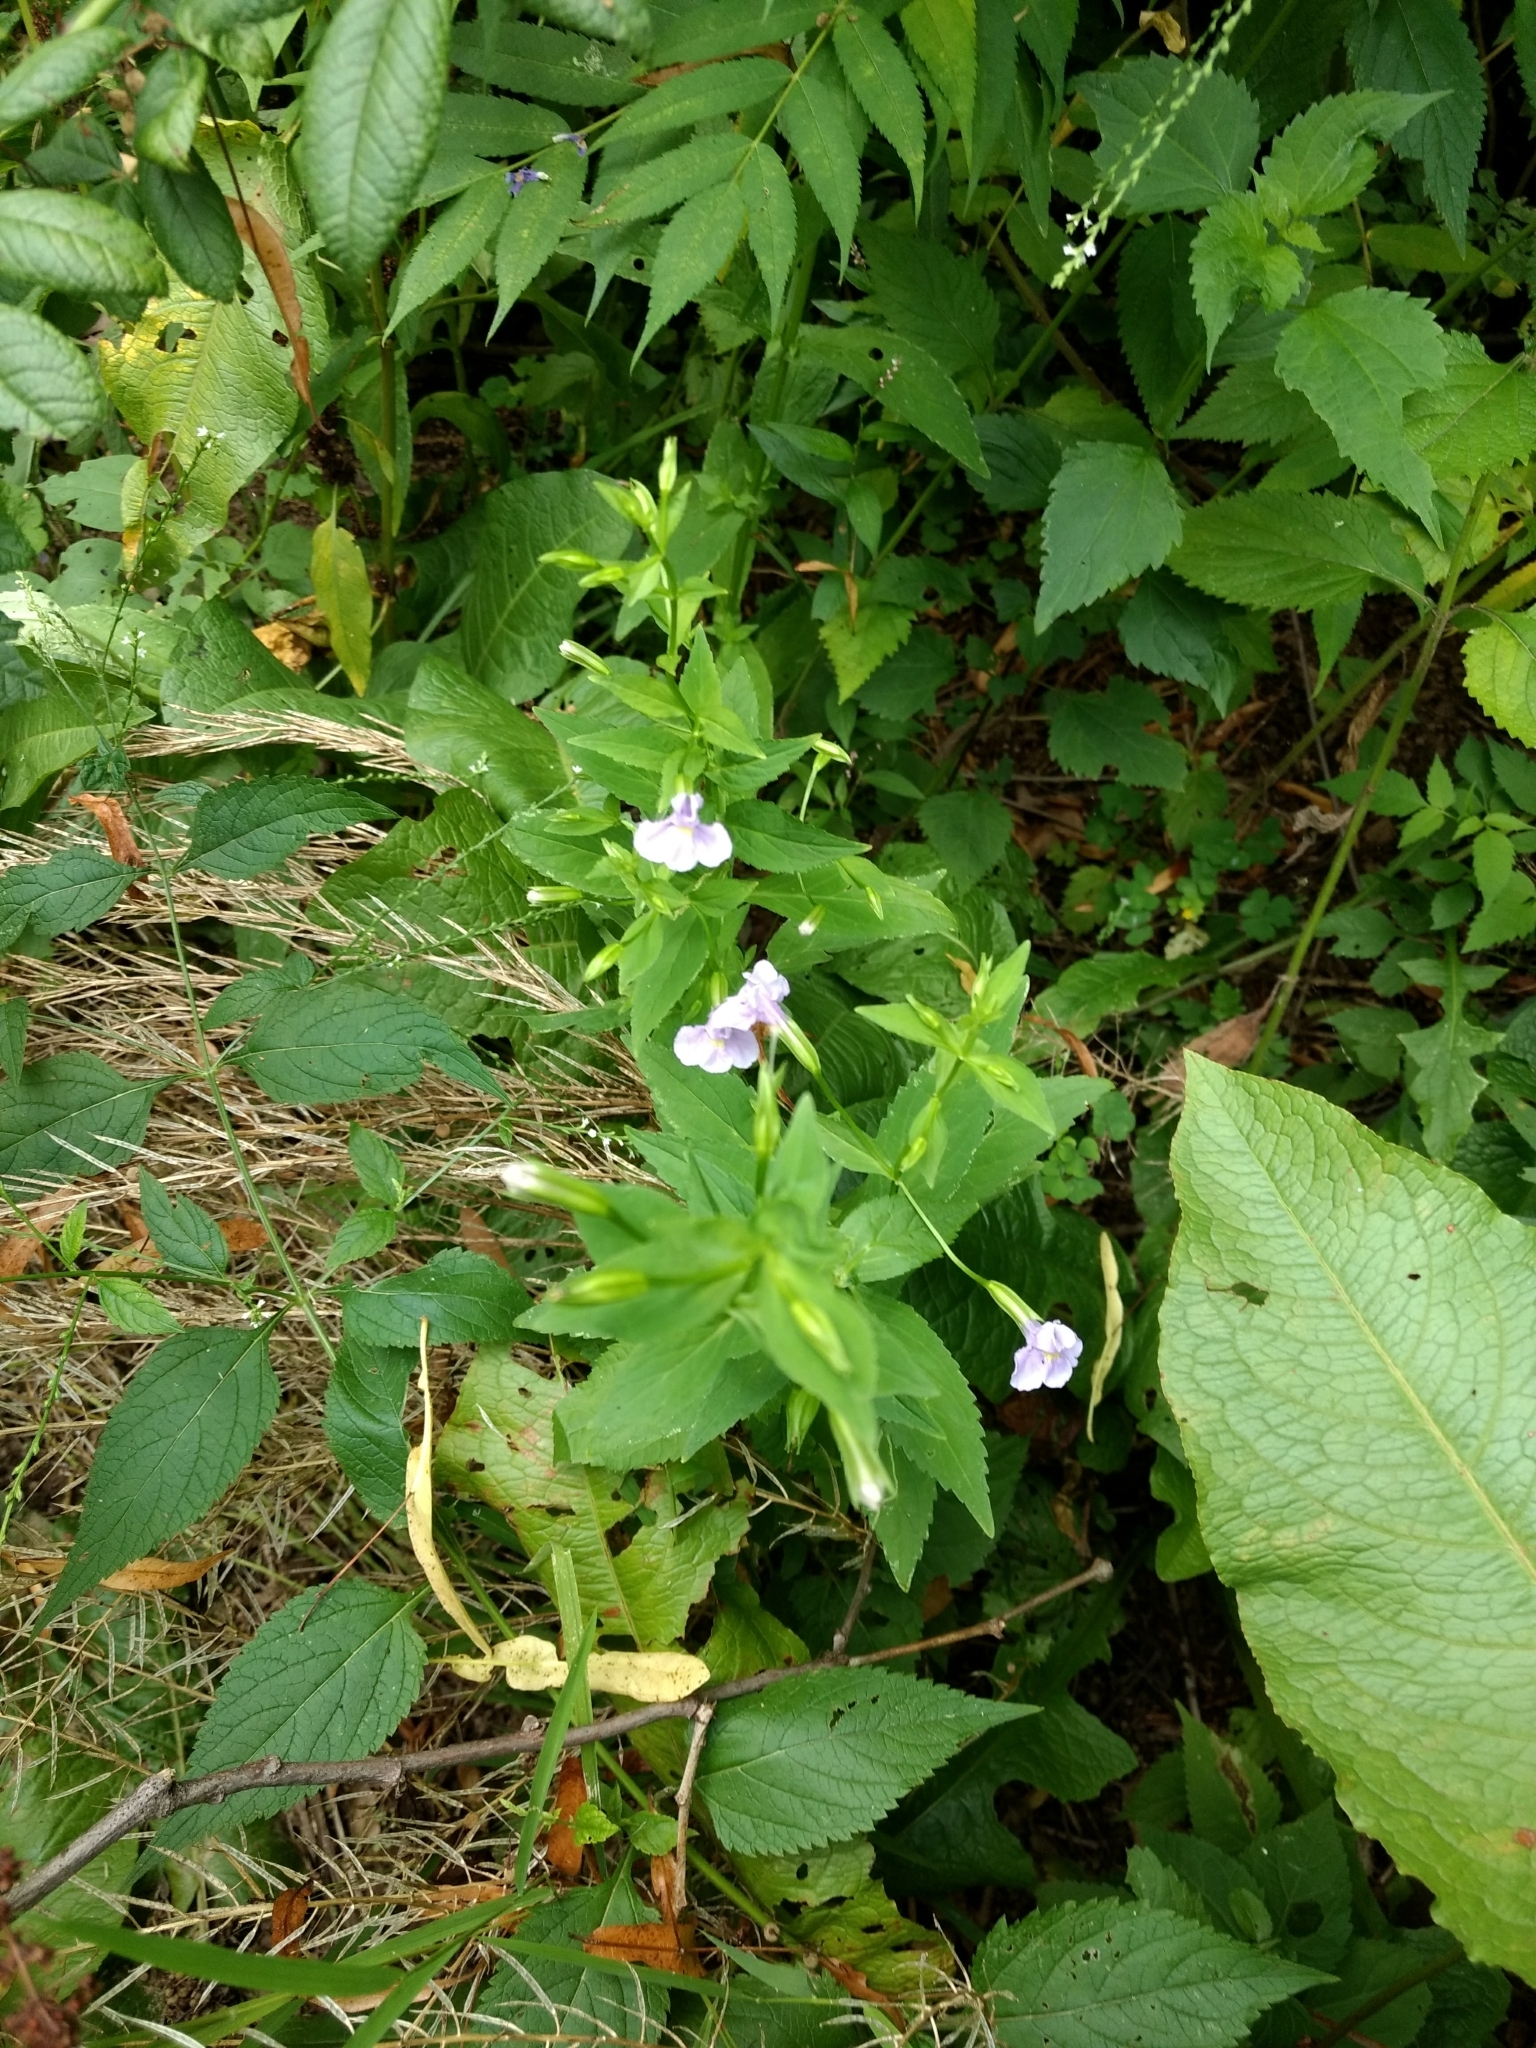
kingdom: Plantae
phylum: Tracheophyta
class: Magnoliopsida
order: Lamiales
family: Phrymaceae
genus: Mimulus
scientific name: Mimulus ringens
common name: Allegheny monkeyflower
